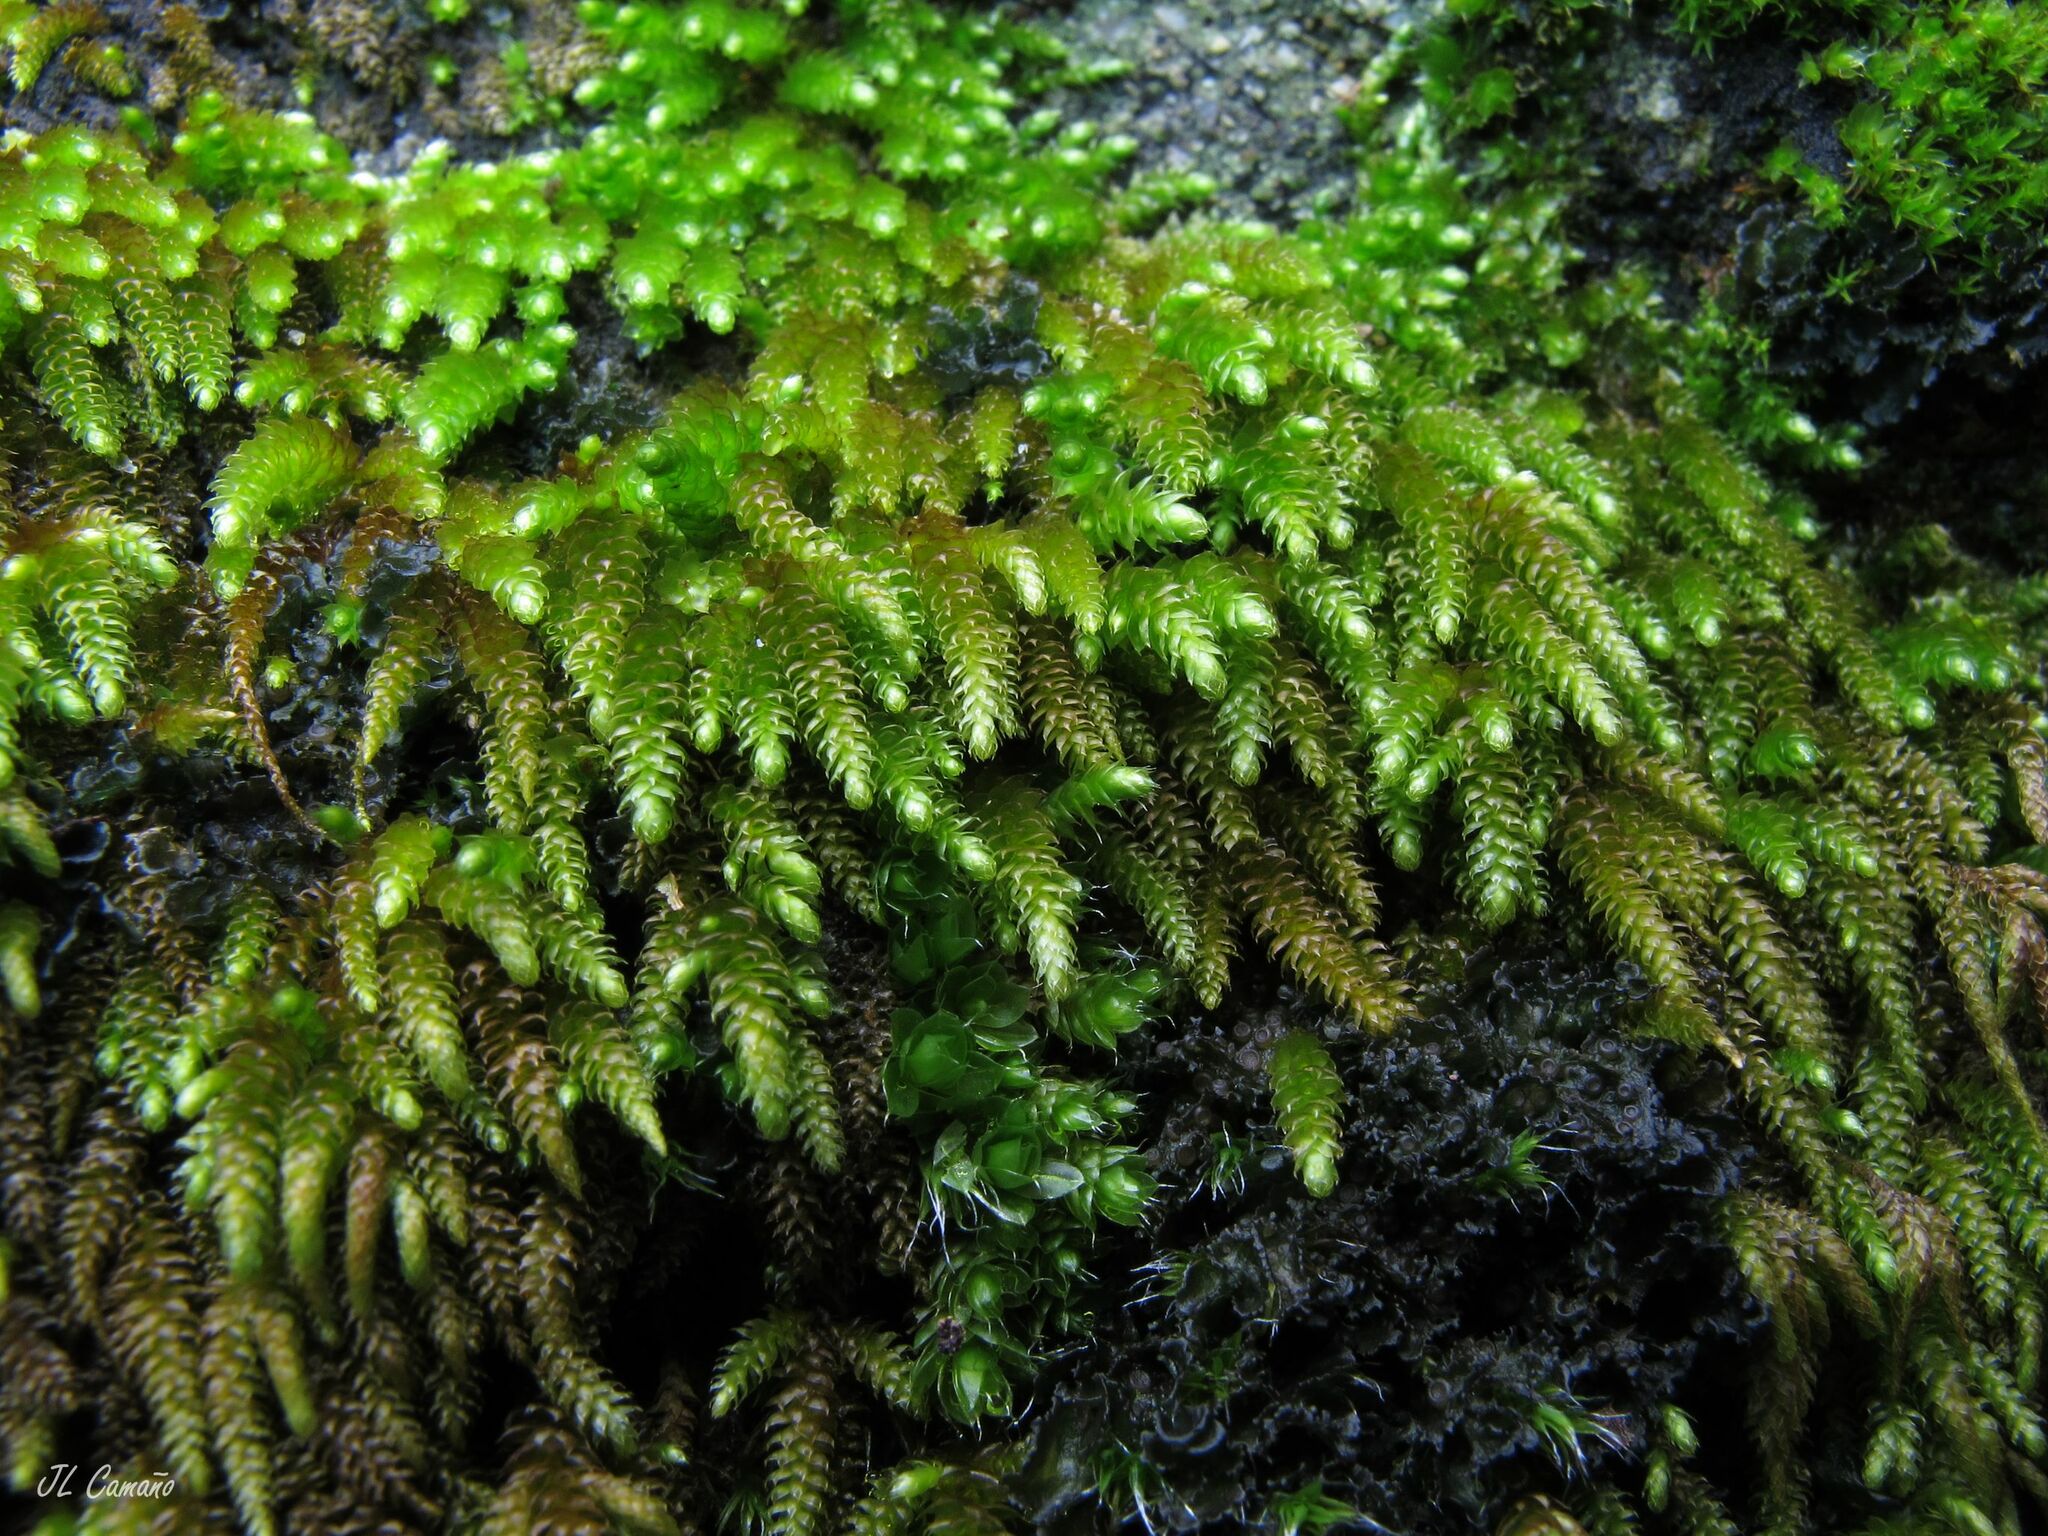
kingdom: Plantae
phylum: Bryophyta
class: Bryopsida
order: Hypnales
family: Lembophyllaceae
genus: Nogopterium
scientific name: Nogopterium gracile
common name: Bird's-foot wing-moss
